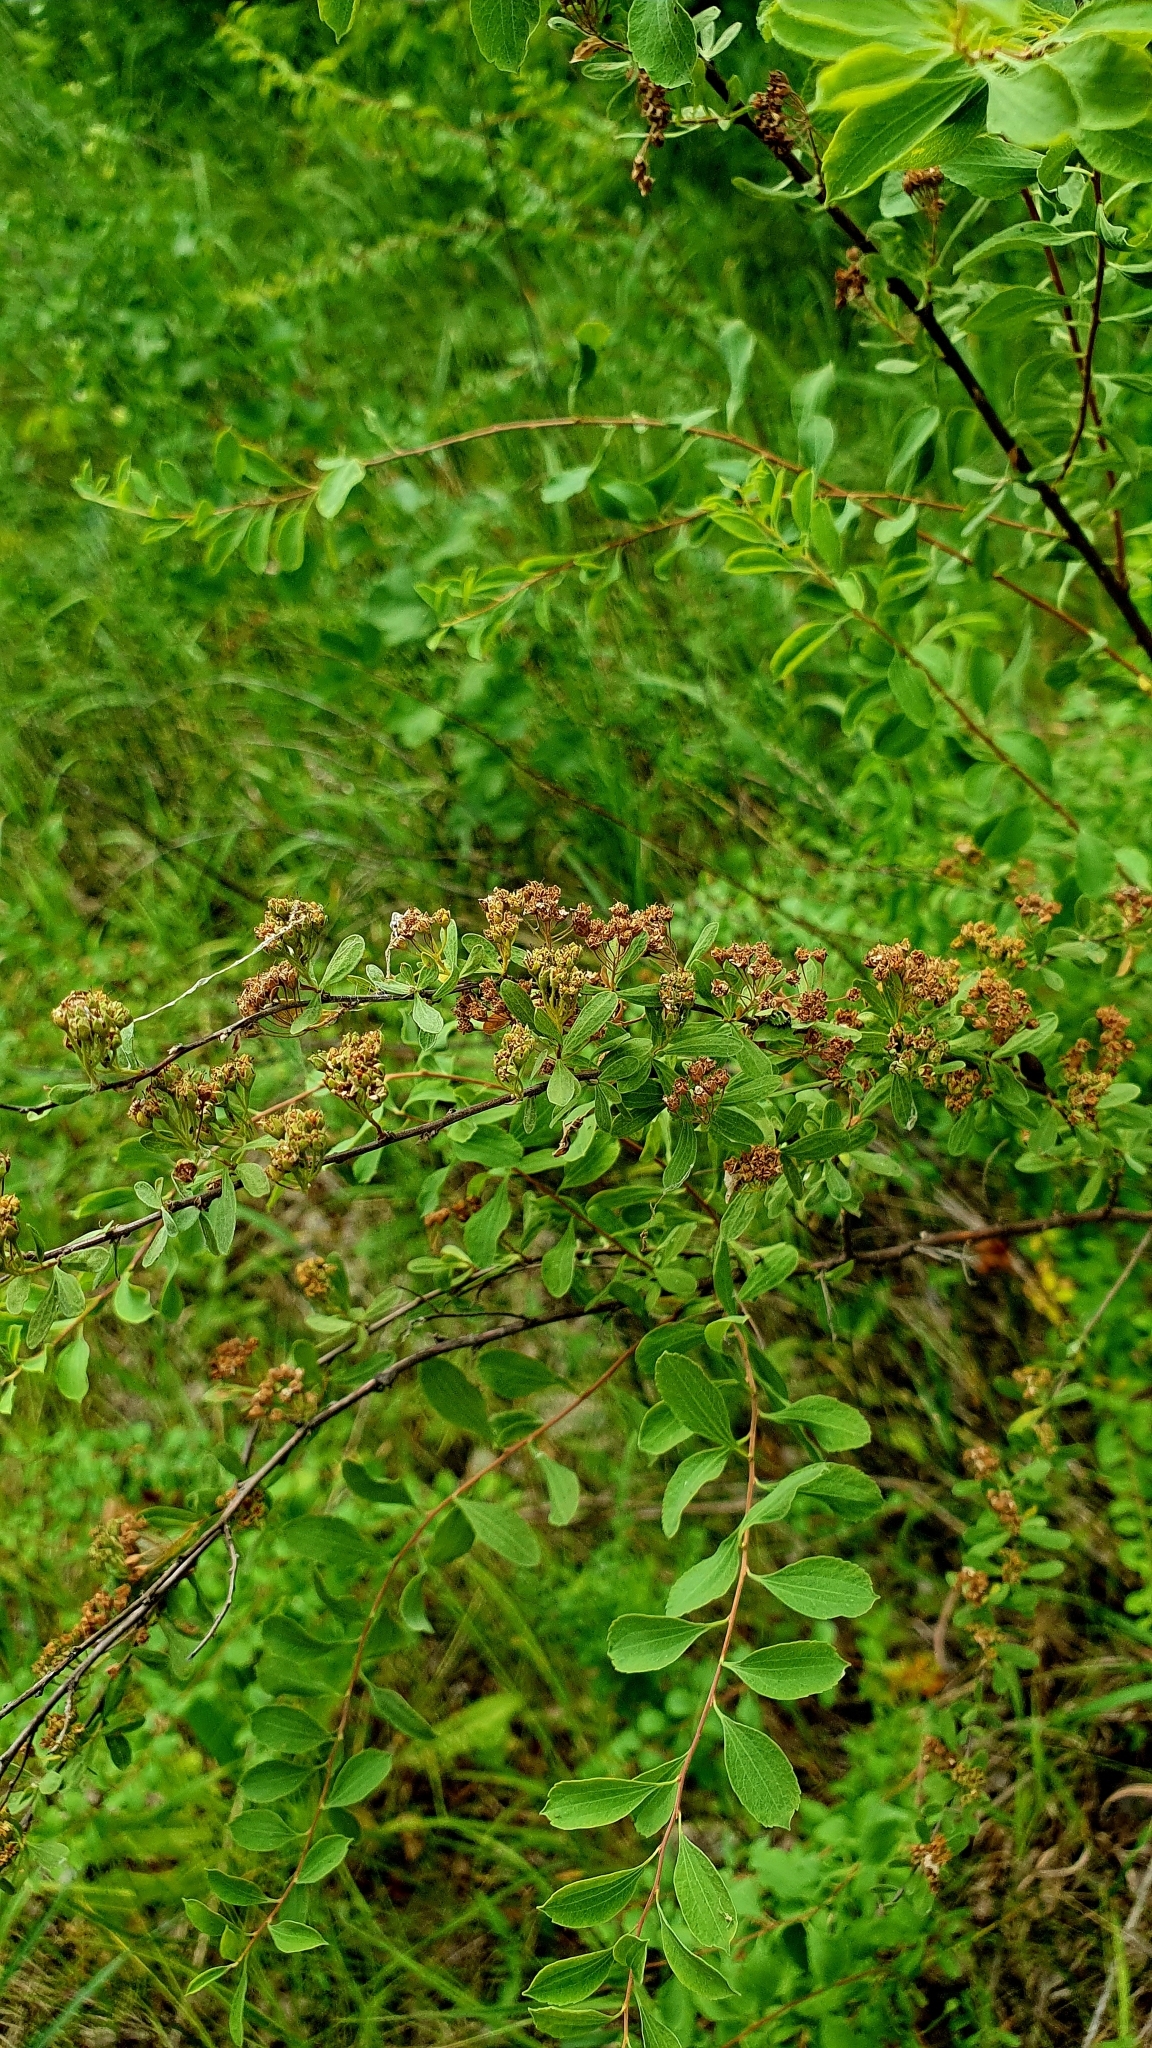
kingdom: Plantae
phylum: Tracheophyta
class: Magnoliopsida
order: Rosales
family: Rosaceae
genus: Spiraea
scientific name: Spiraea crenata
